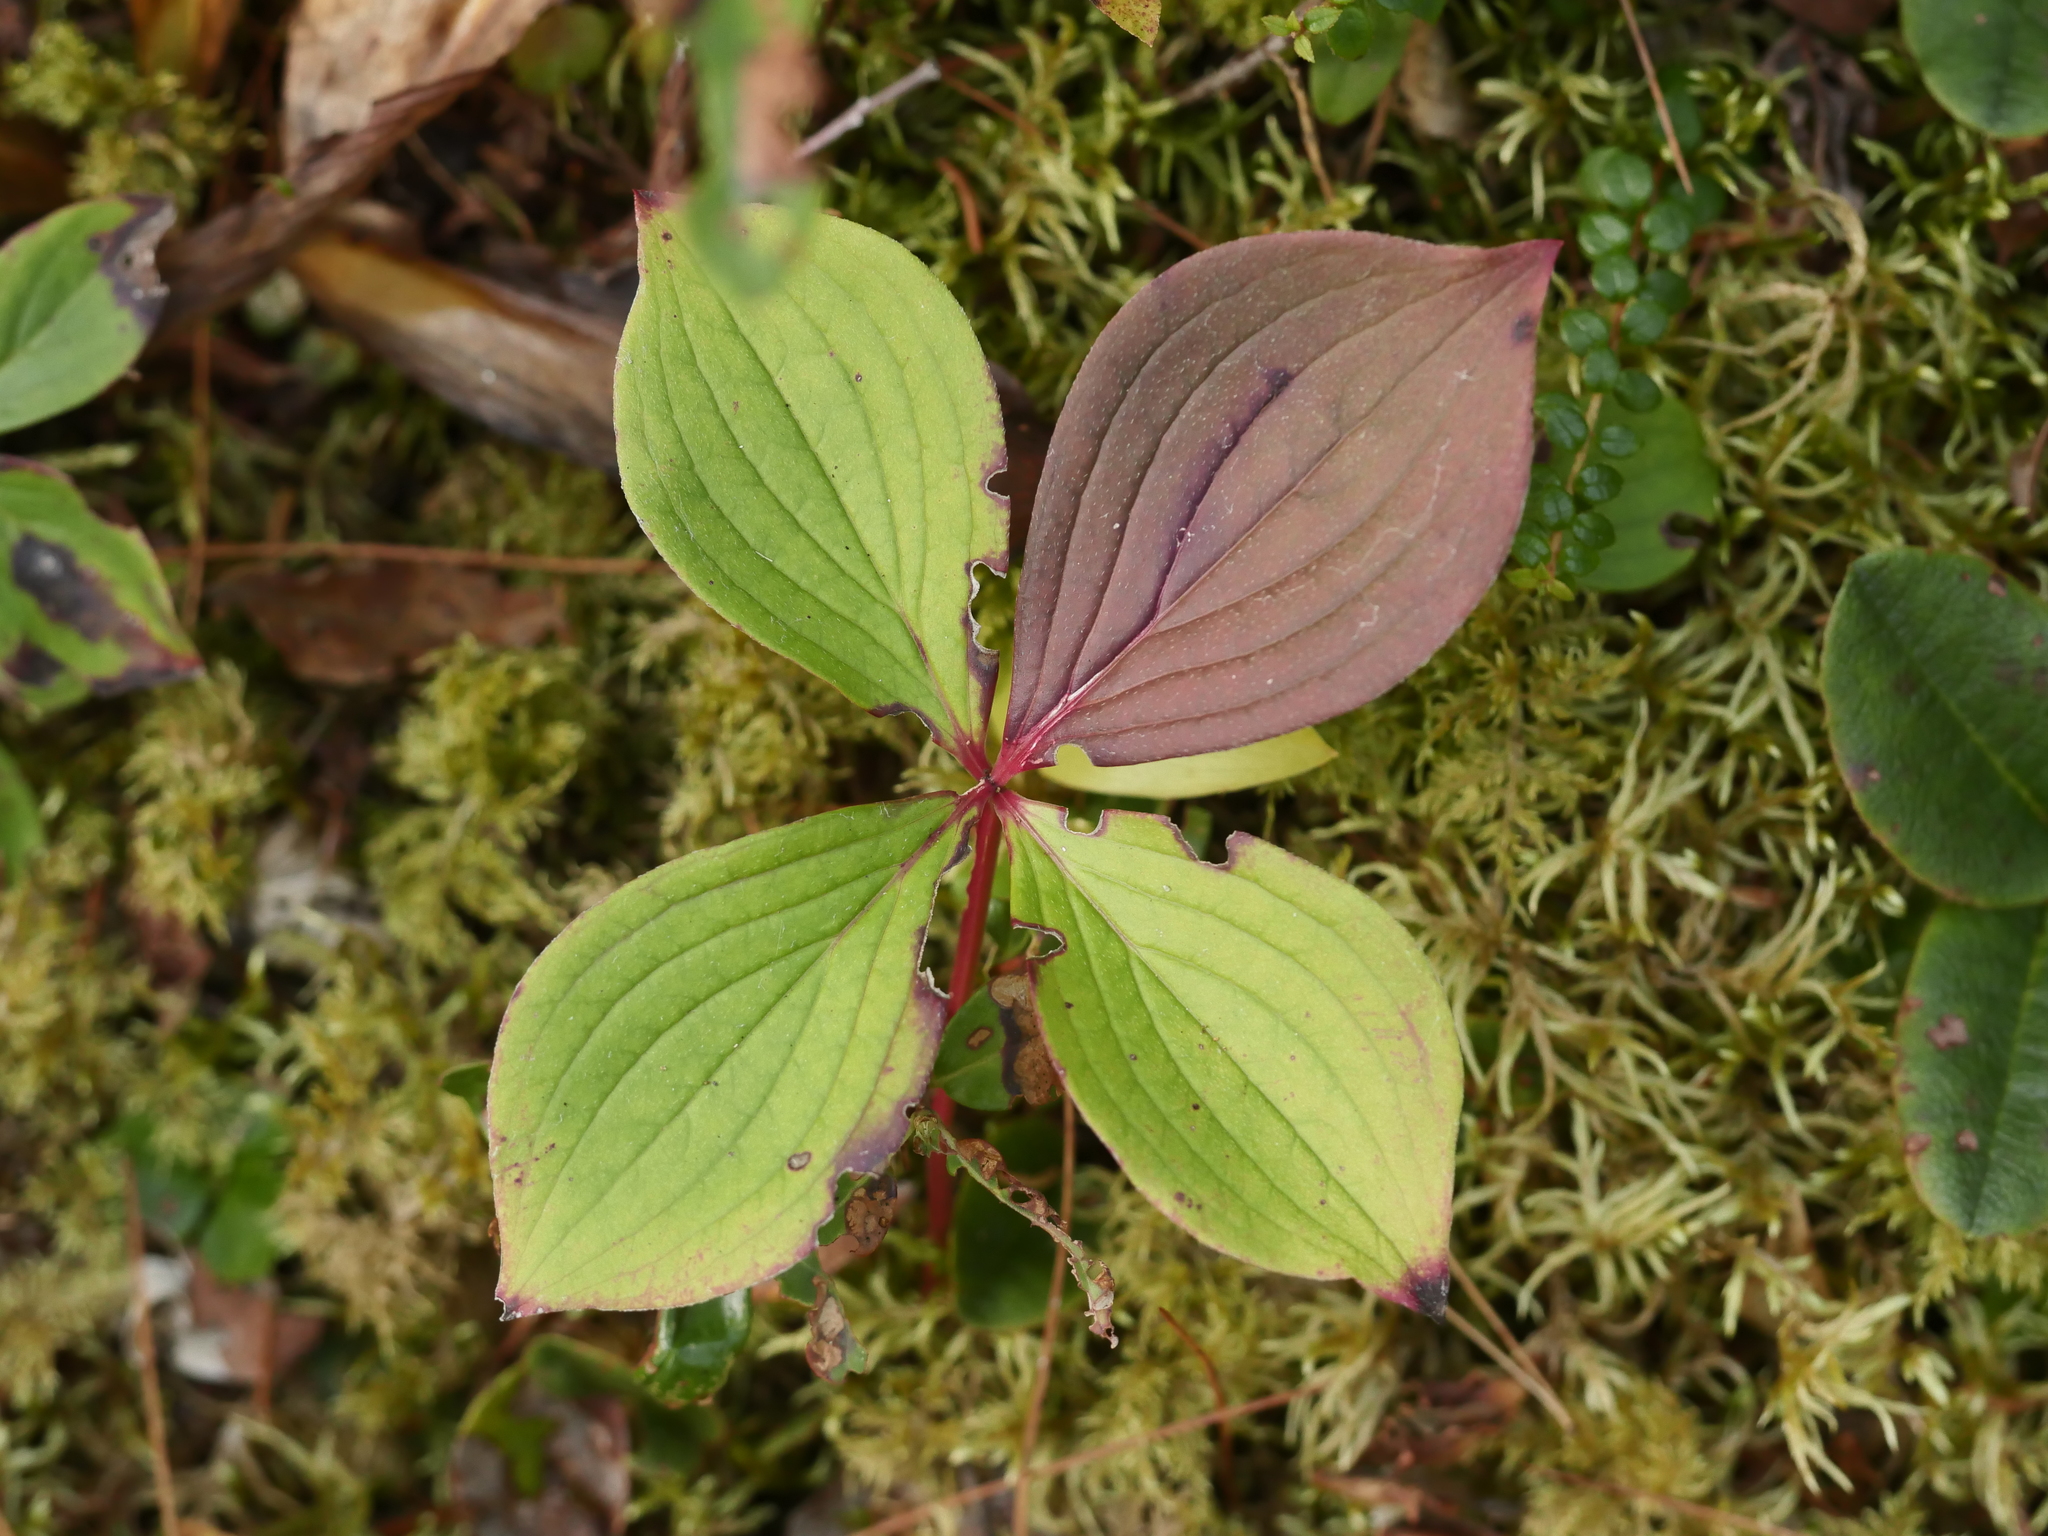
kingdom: Plantae
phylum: Tracheophyta
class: Magnoliopsida
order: Cornales
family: Cornaceae
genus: Cornus
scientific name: Cornus canadensis
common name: Creeping dogwood
